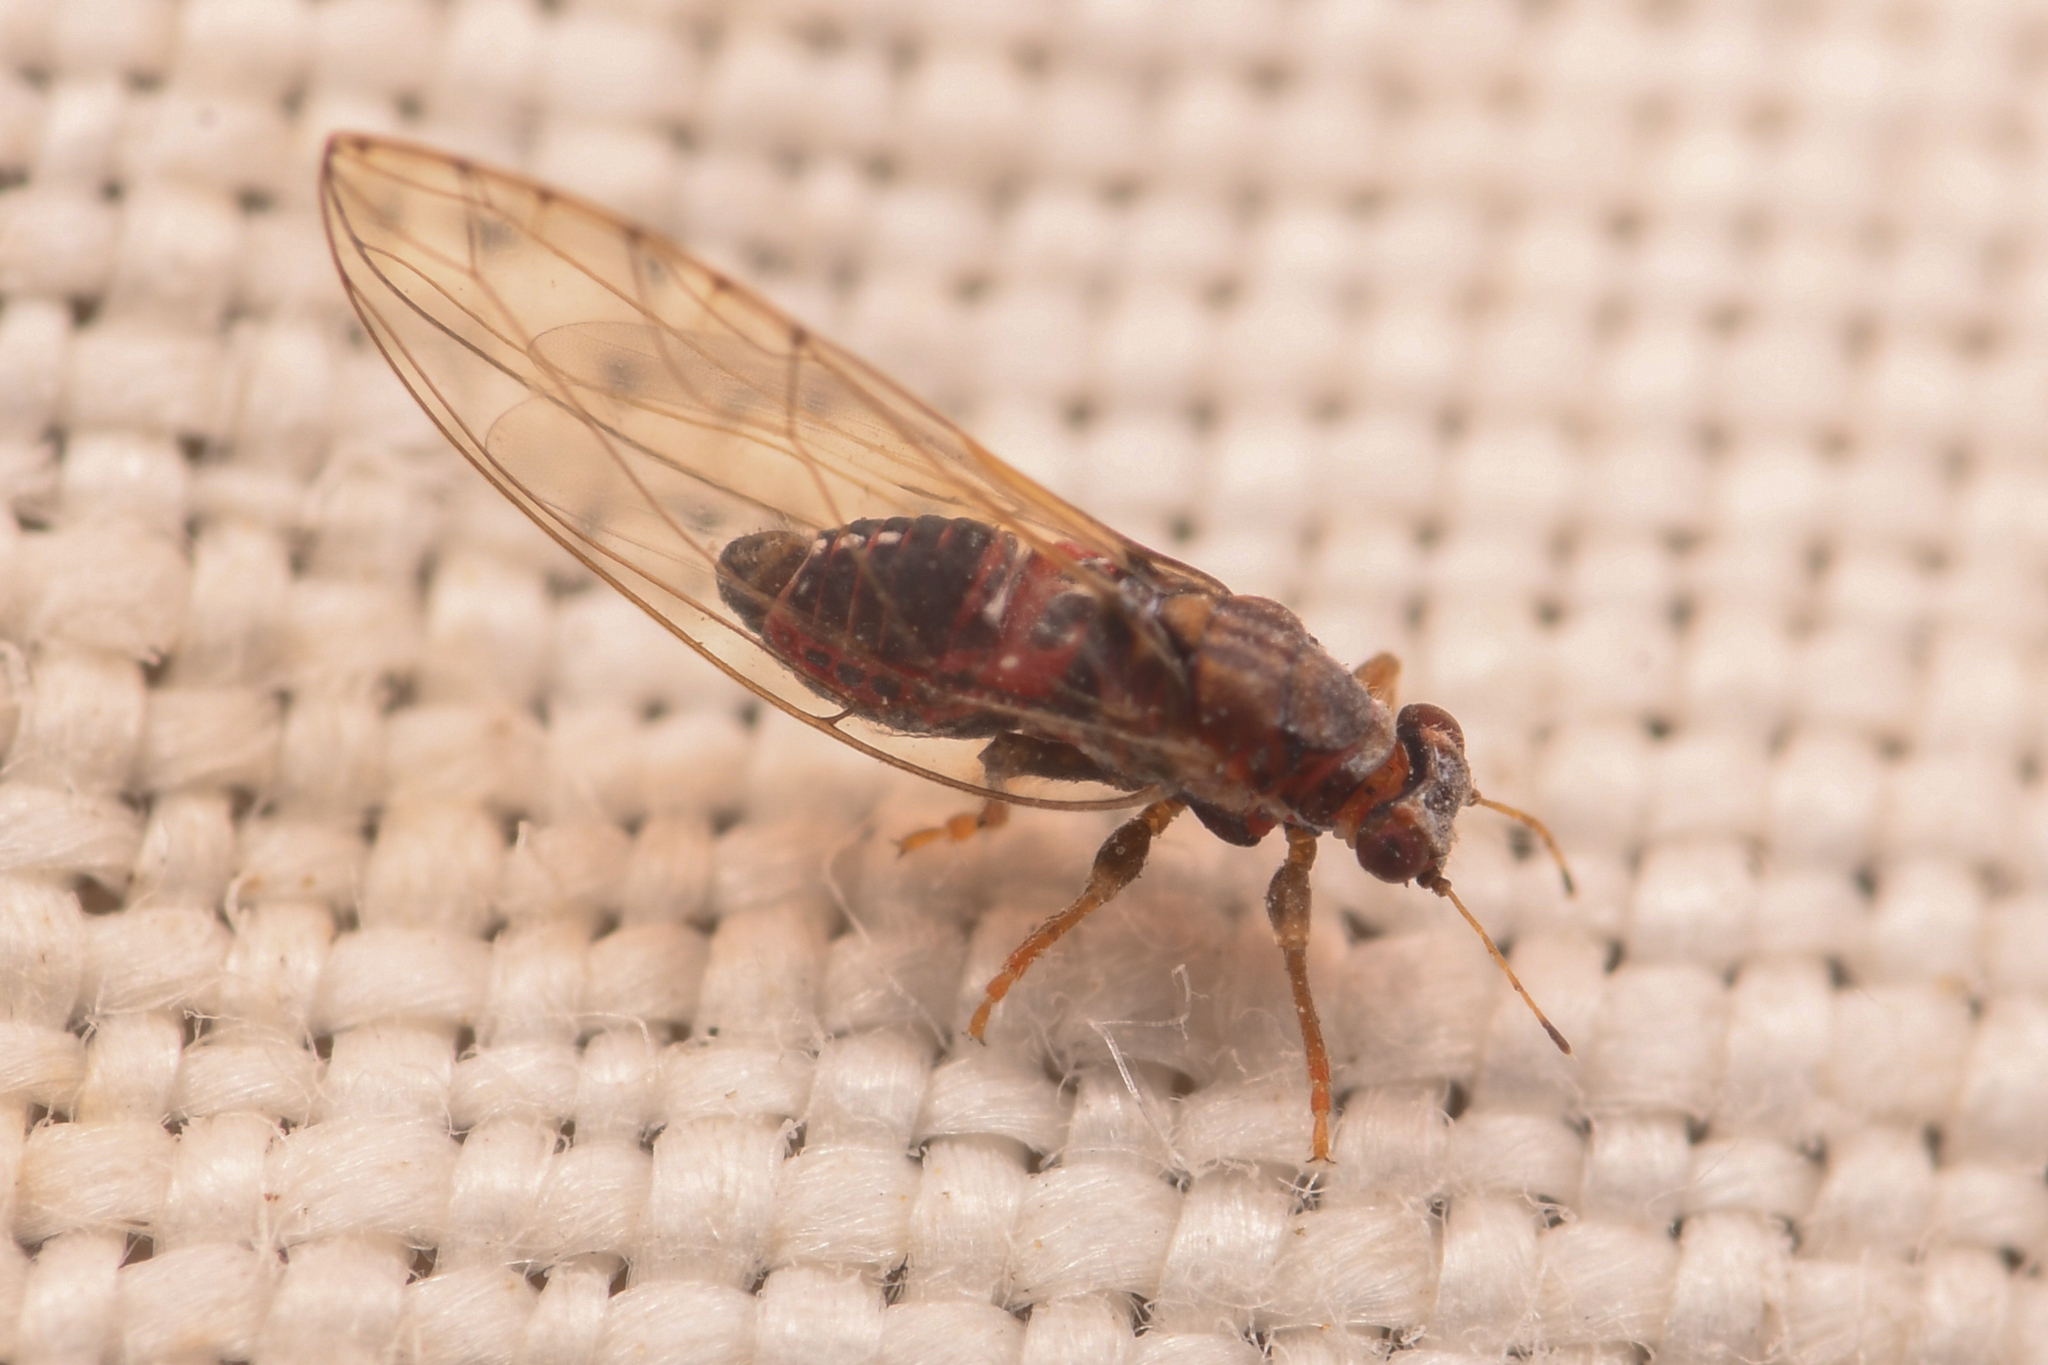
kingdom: Animalia
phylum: Arthropoda
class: Insecta
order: Hemiptera
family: Triozidae
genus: Trioza
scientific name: Trioza bakeri
